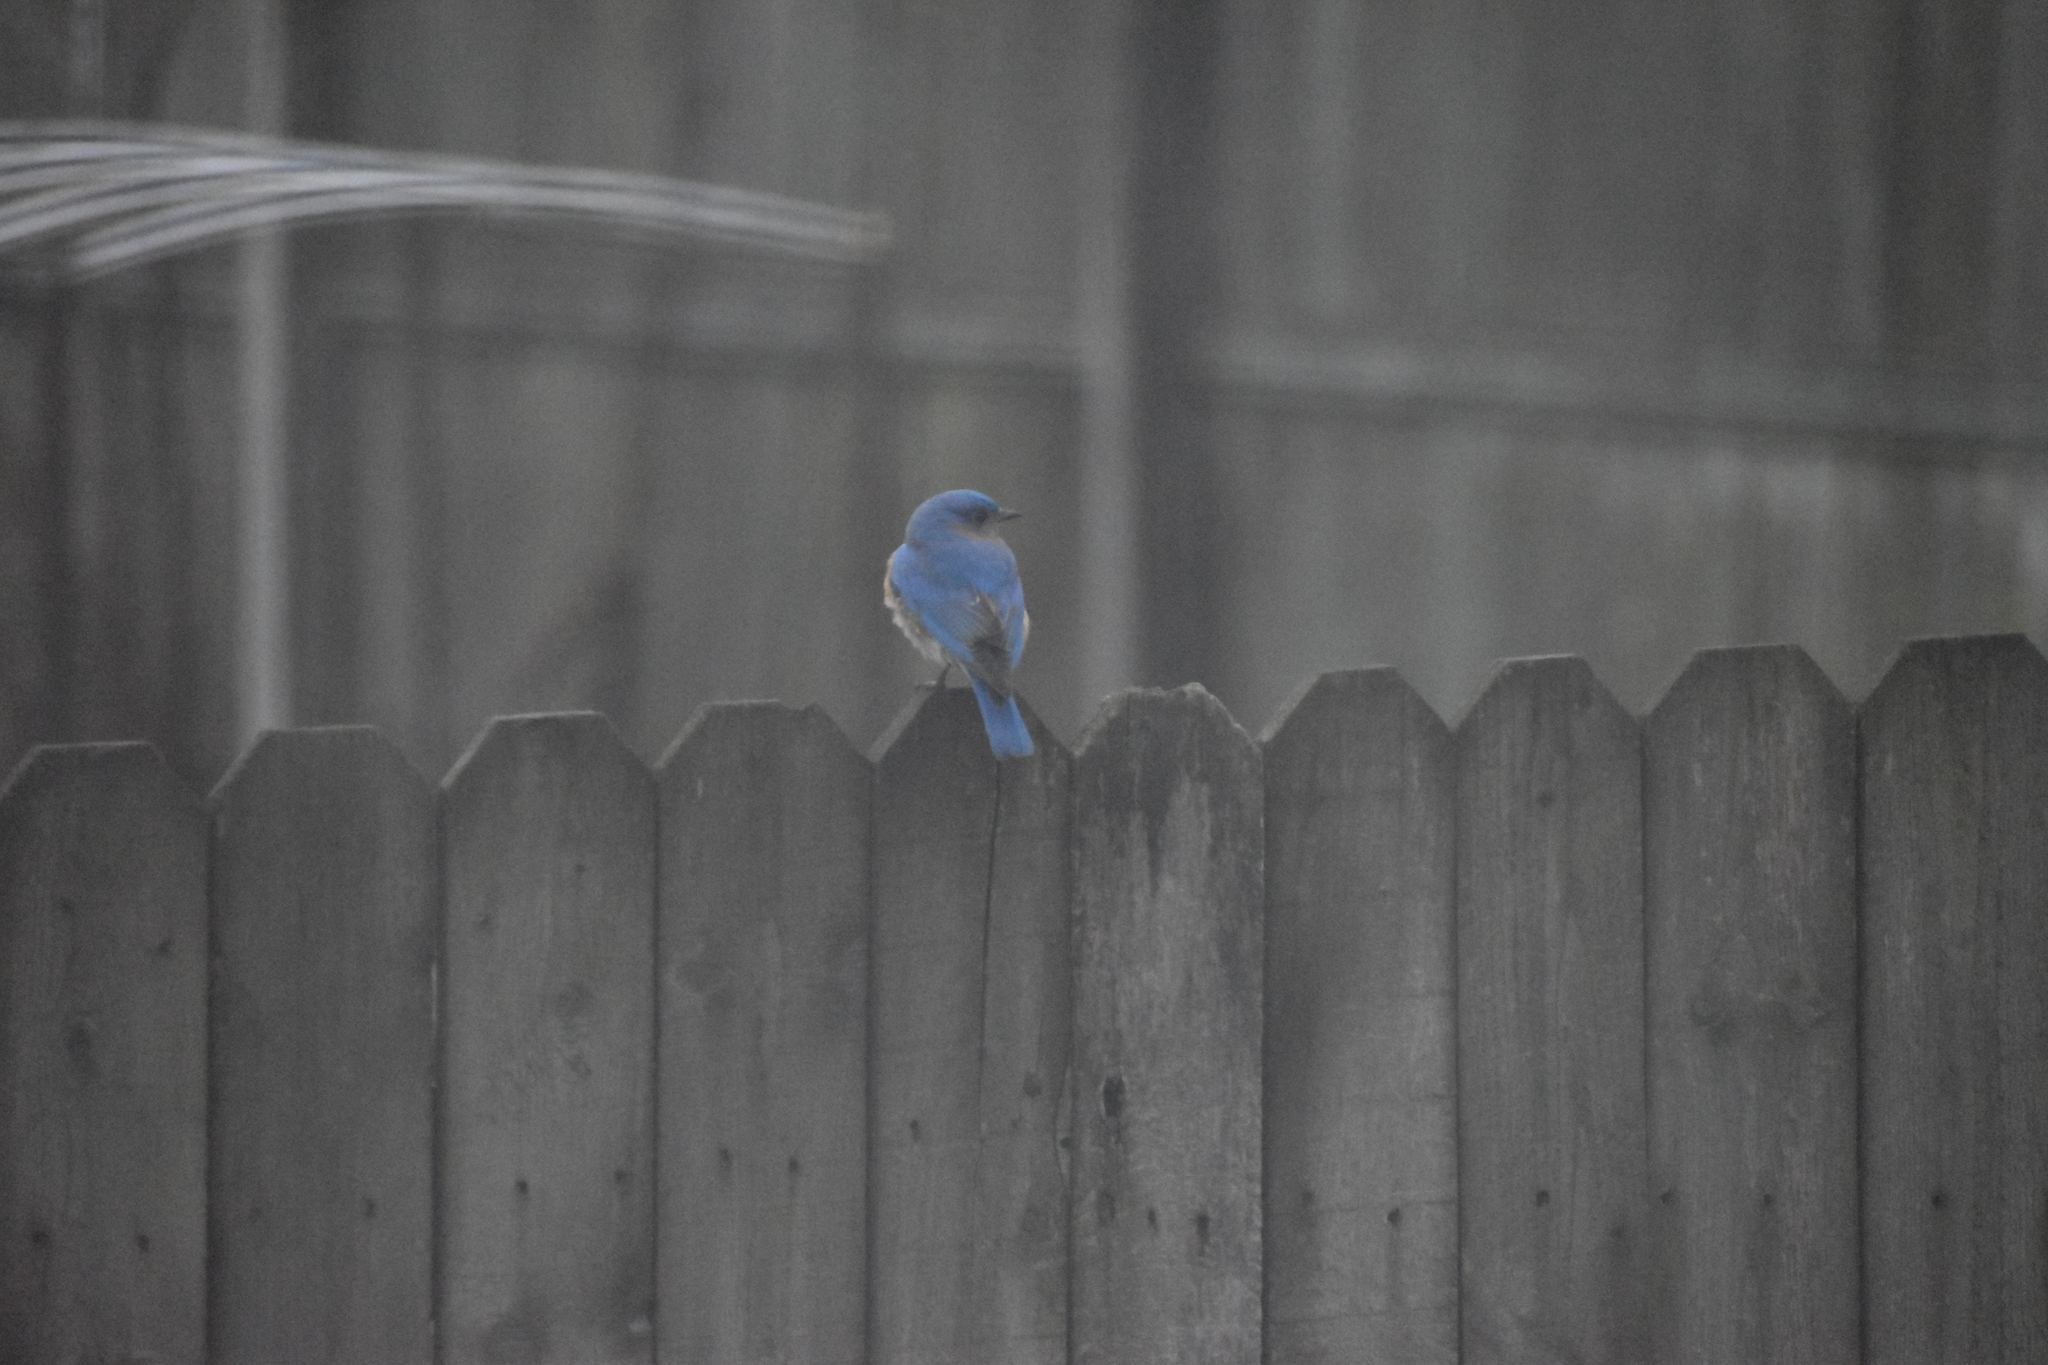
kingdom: Animalia
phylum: Chordata
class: Aves
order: Passeriformes
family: Turdidae
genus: Sialia
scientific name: Sialia sialis
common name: Eastern bluebird
